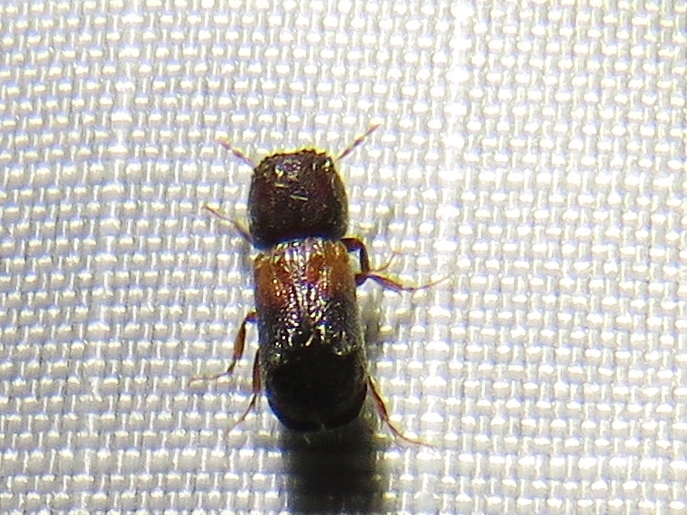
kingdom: Animalia
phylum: Arthropoda
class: Insecta
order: Coleoptera
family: Bostrichidae
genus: Xylobiops
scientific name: Xylobiops basilaris
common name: Red-shouldered bostrichid
